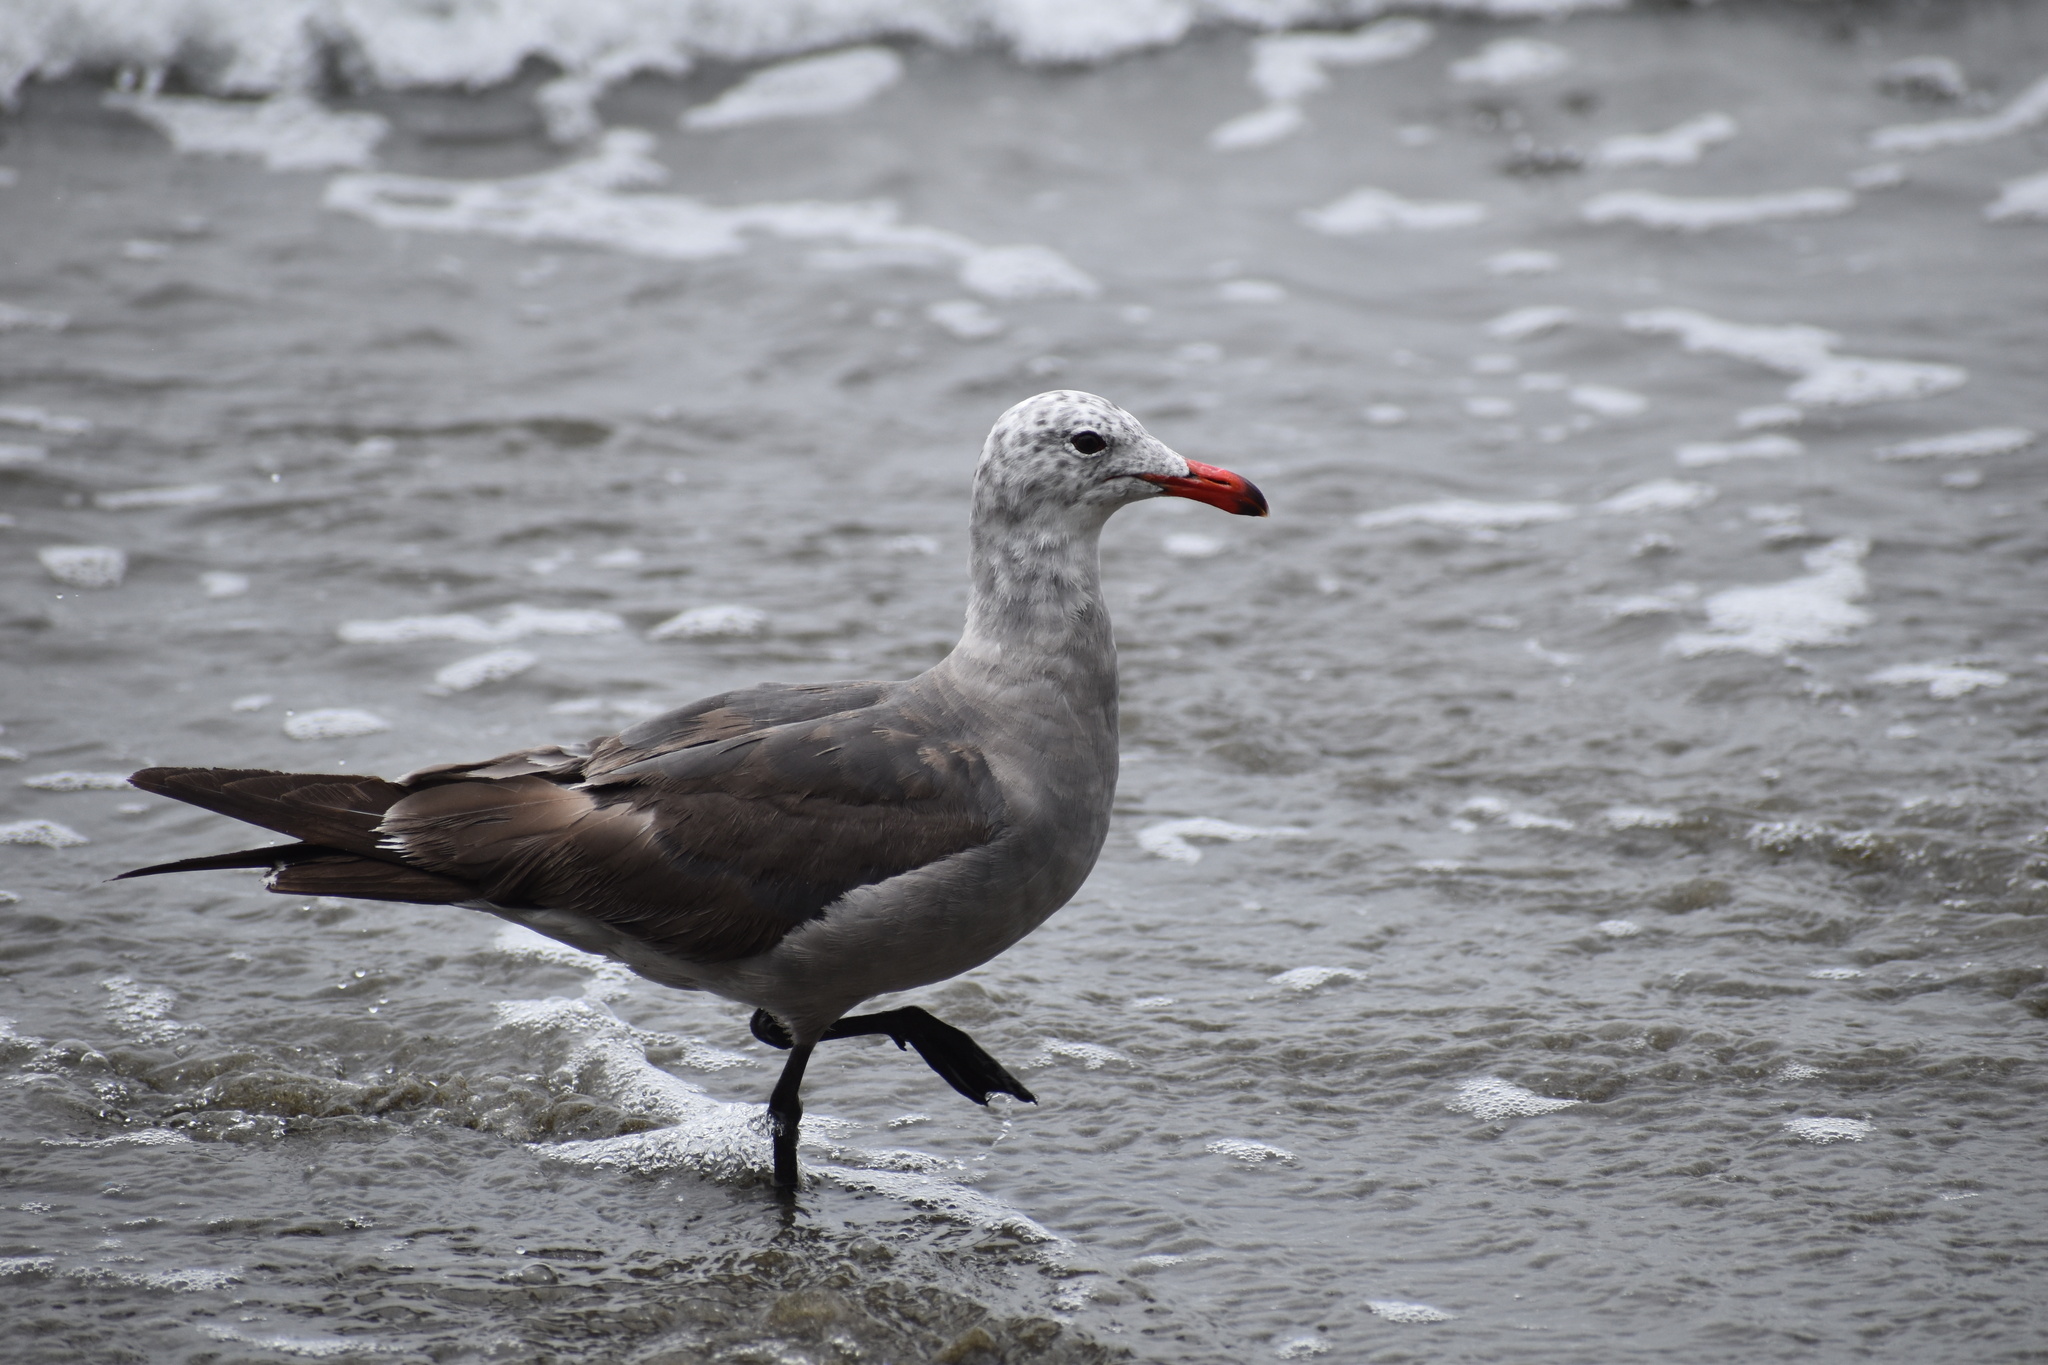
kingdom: Animalia
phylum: Chordata
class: Aves
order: Charadriiformes
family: Laridae
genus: Larus
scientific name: Larus heermanni
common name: Heermann's gull
